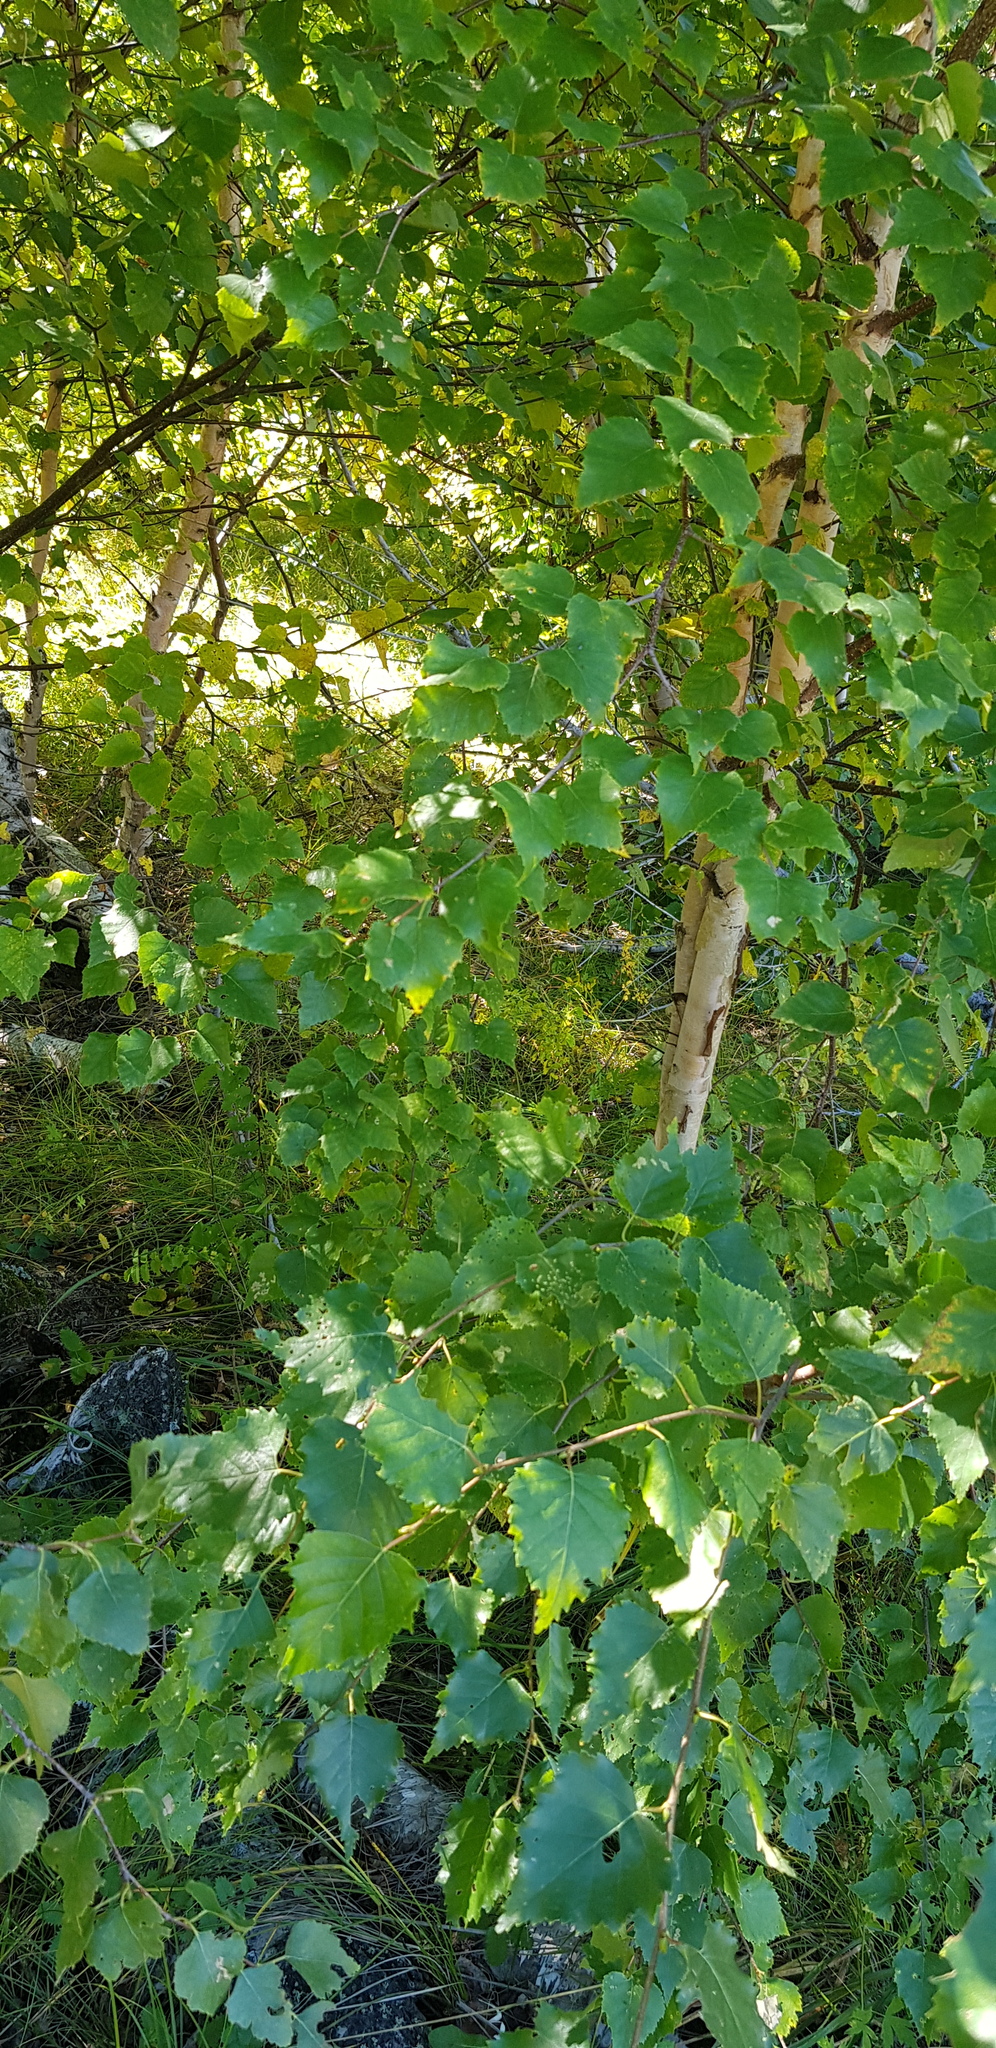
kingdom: Plantae
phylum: Tracheophyta
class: Magnoliopsida
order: Fagales
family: Betulaceae
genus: Betula
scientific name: Betula pendula
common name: Silver birch
